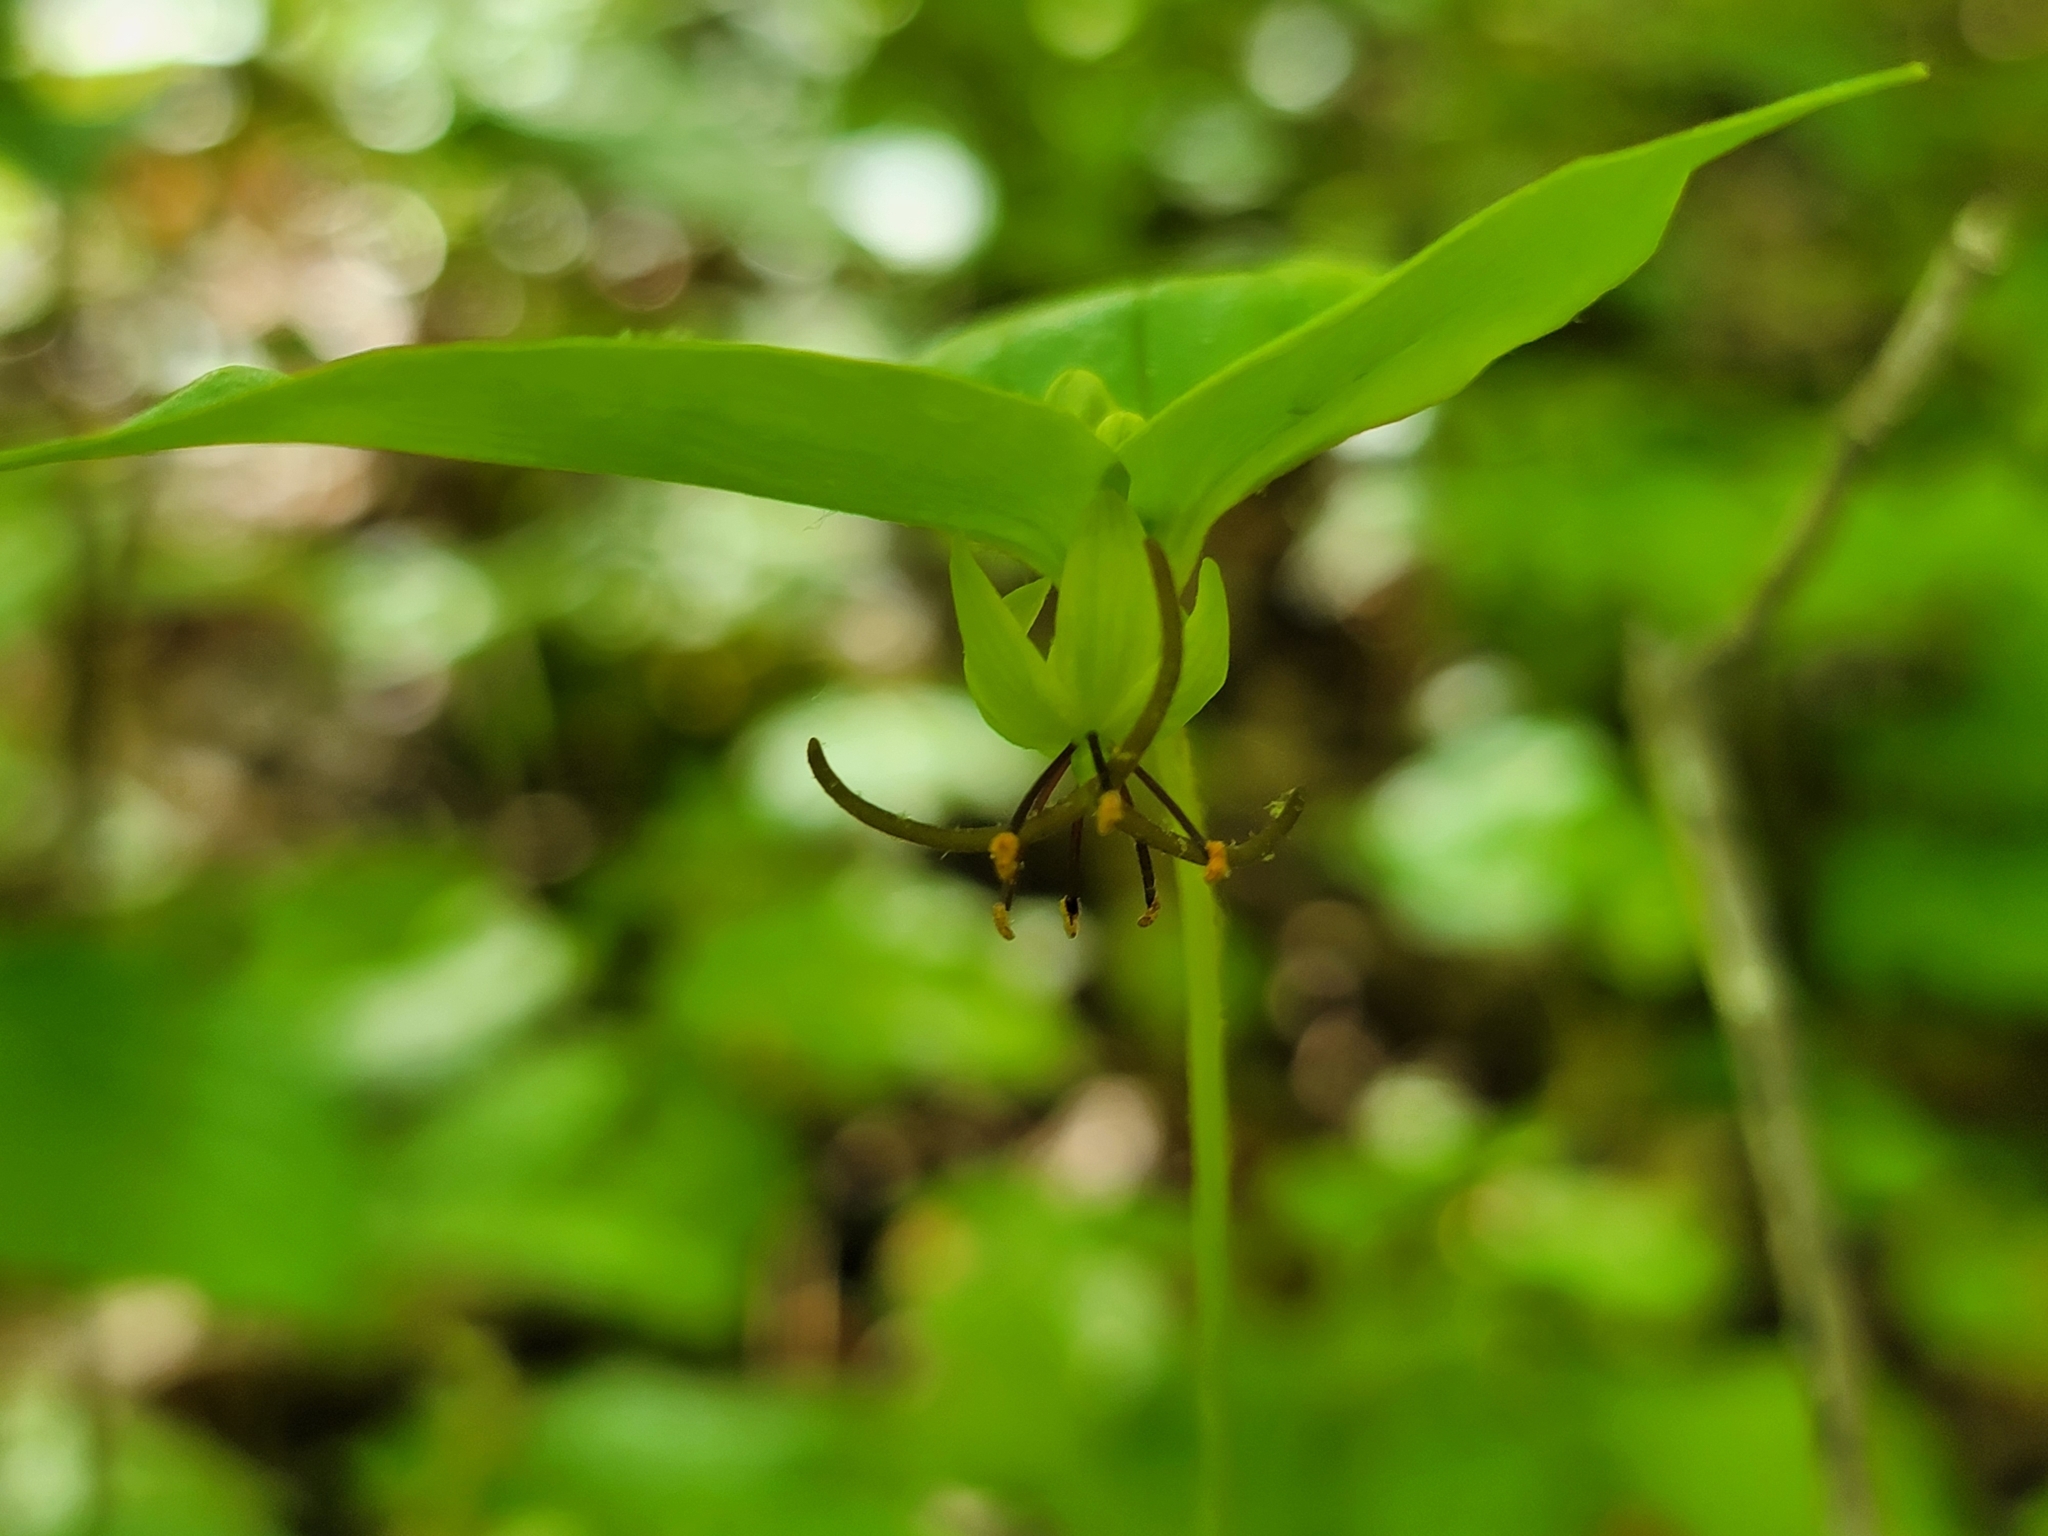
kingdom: Plantae
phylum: Tracheophyta
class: Liliopsida
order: Liliales
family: Liliaceae
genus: Medeola
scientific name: Medeola virginiana
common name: Indian cucumber-root
